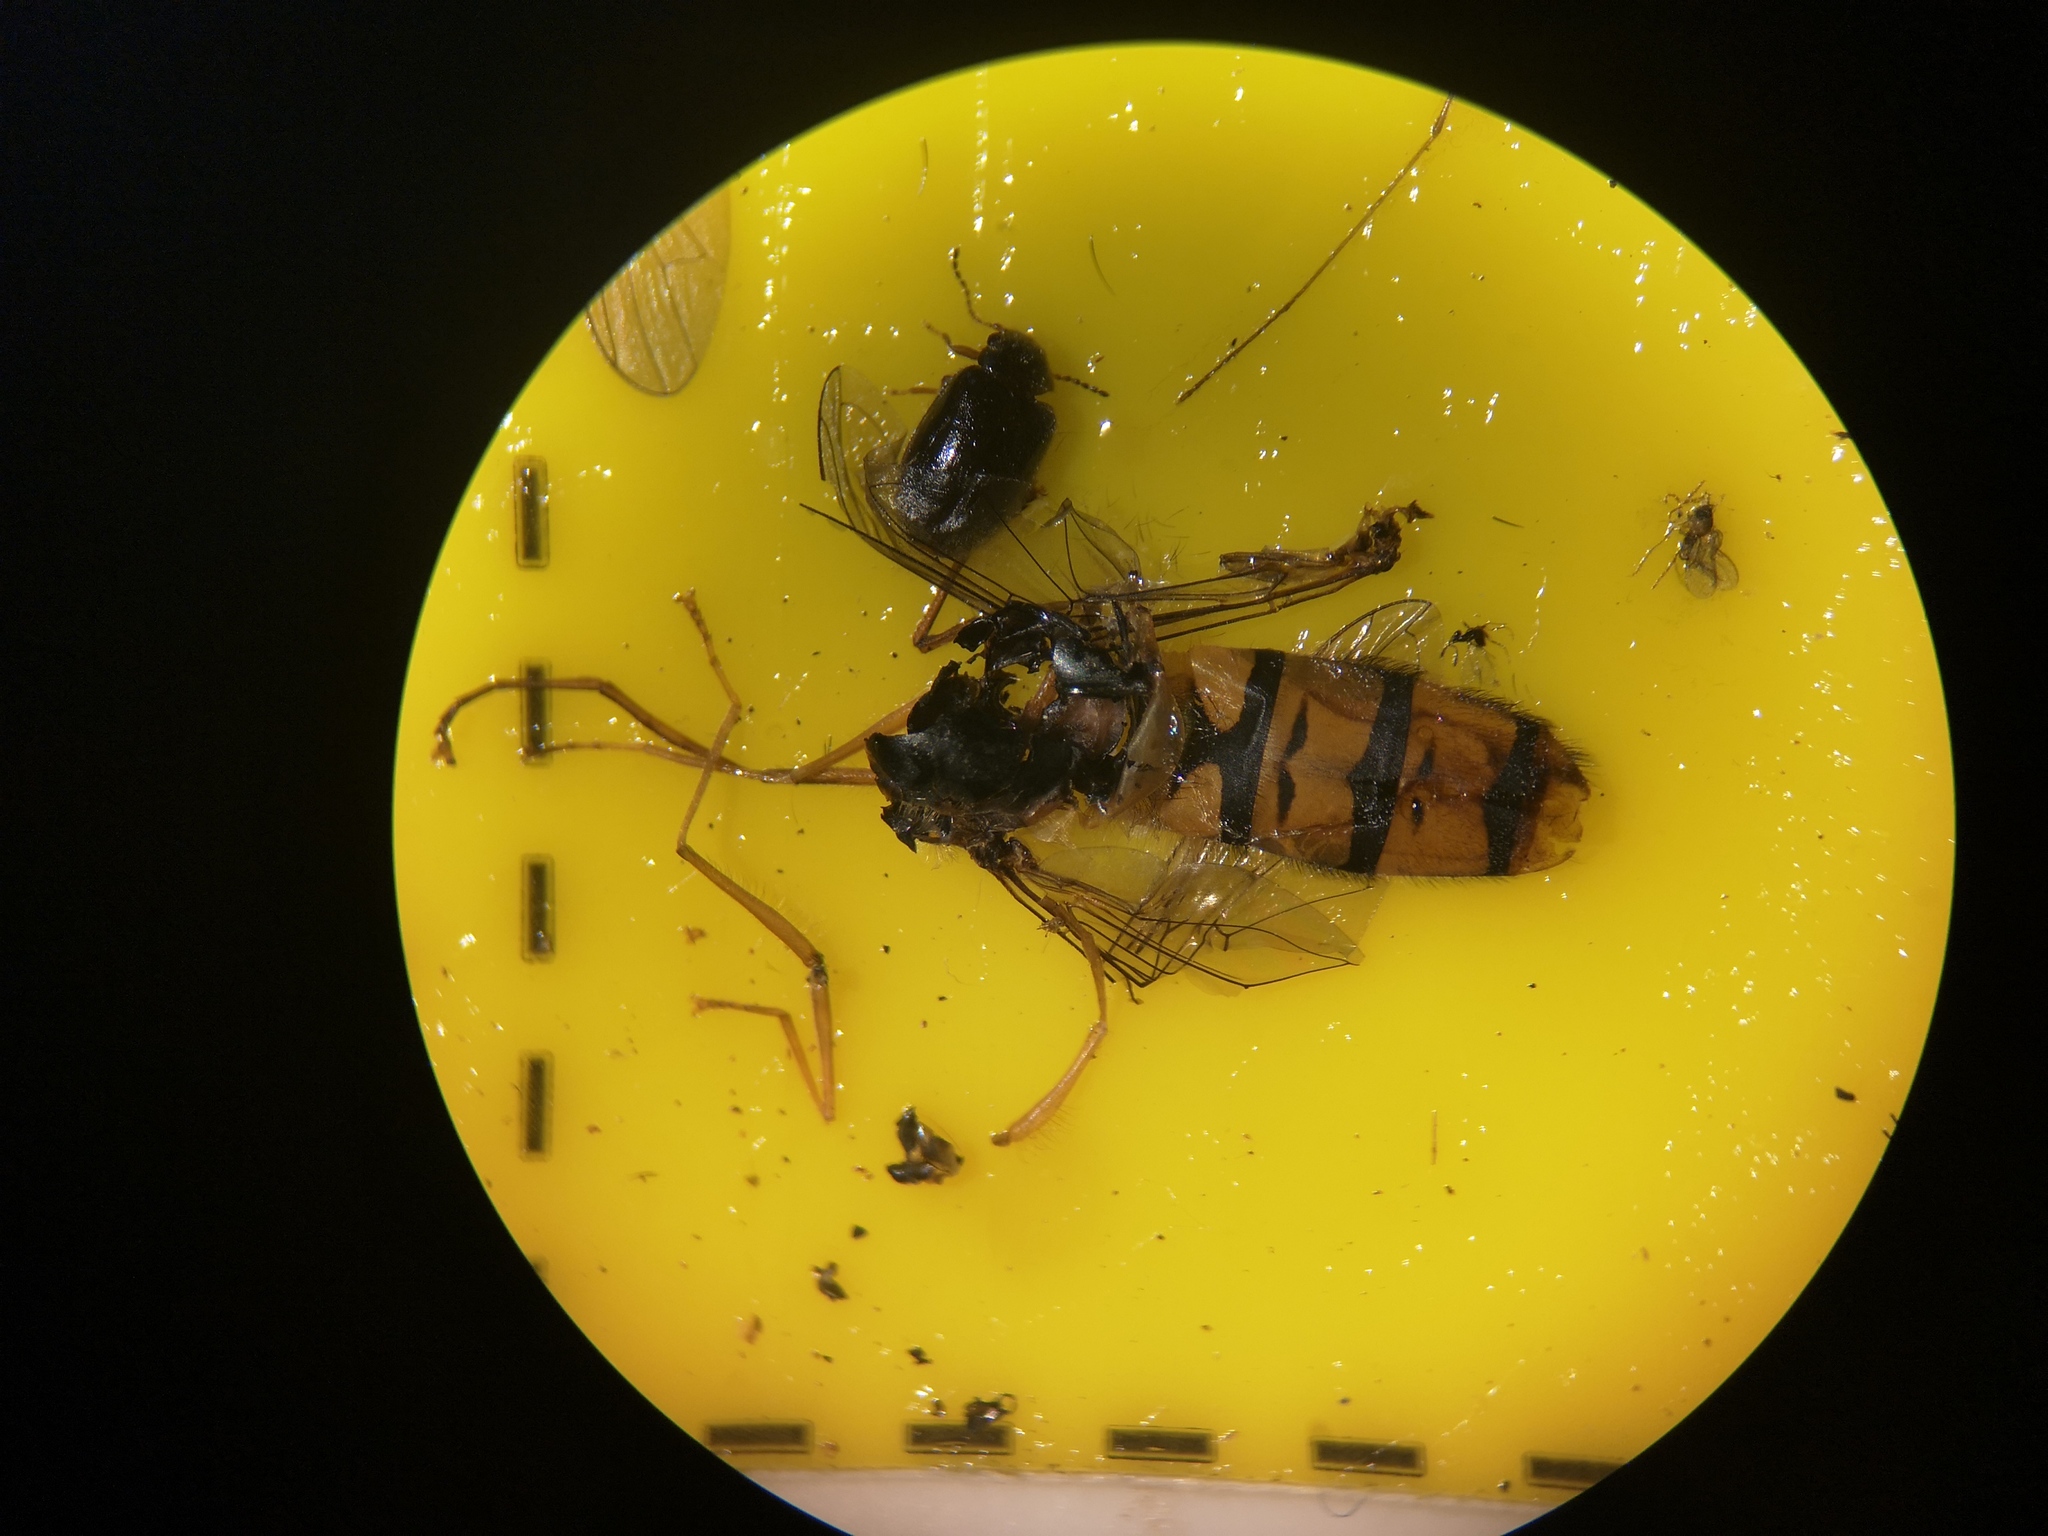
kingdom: Animalia
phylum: Arthropoda
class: Insecta
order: Diptera
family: Syrphidae
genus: Episyrphus
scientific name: Episyrphus balteatus
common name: Marmalade hoverfly
